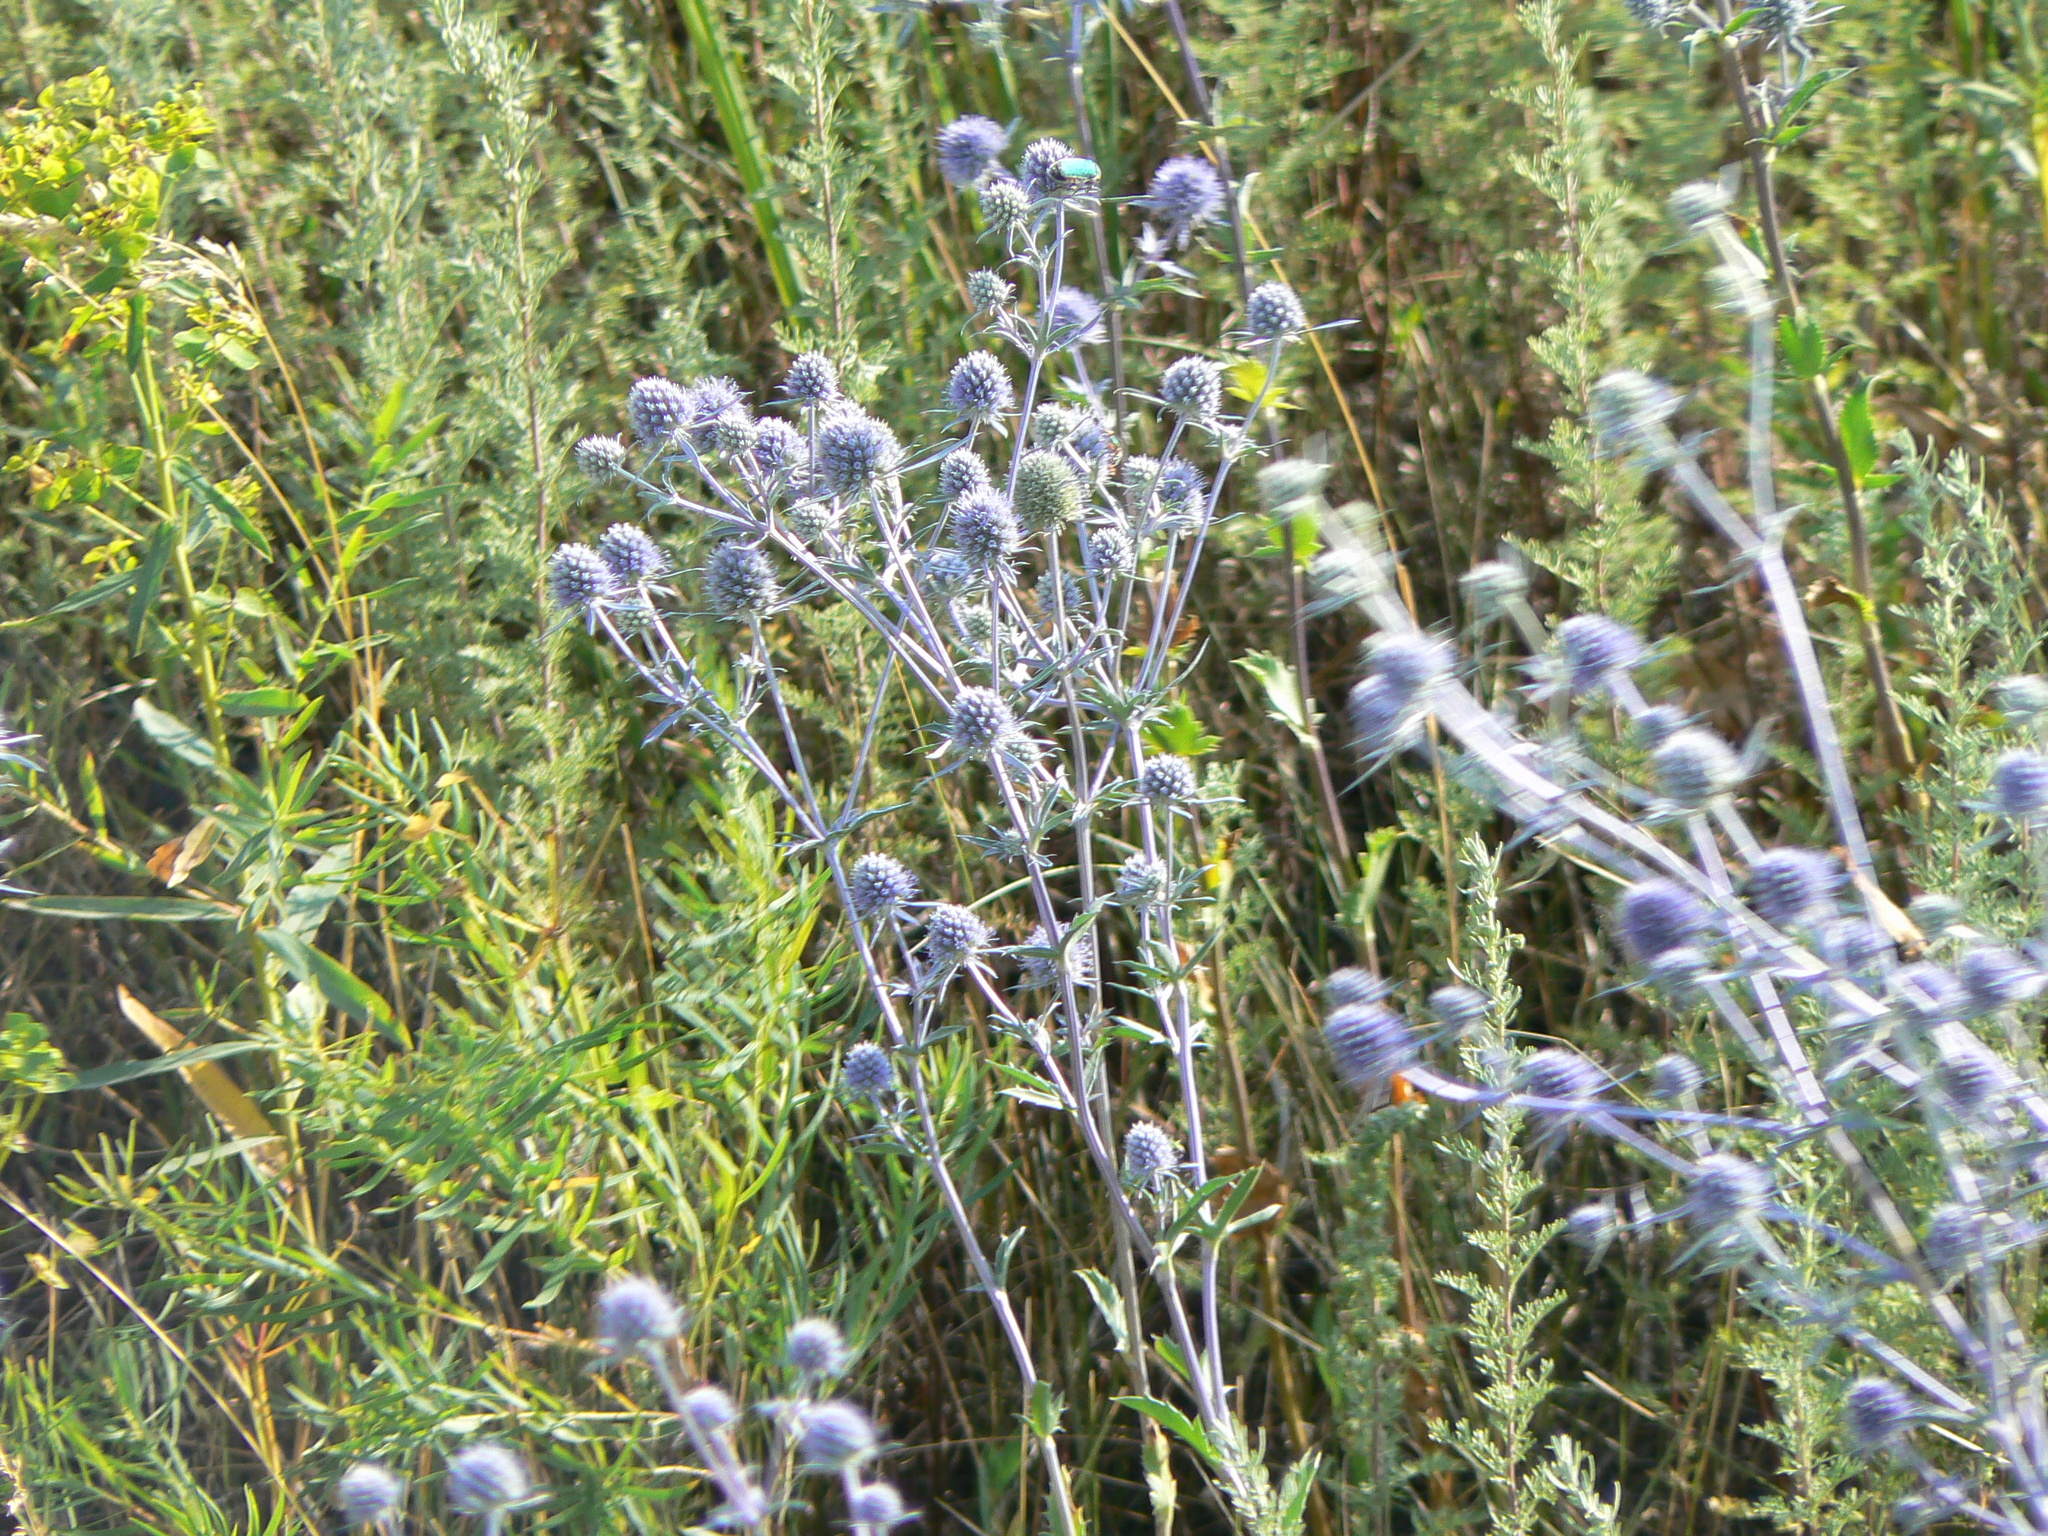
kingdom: Plantae
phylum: Tracheophyta
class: Magnoliopsida
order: Apiales
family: Apiaceae
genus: Eryngium
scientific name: Eryngium planum
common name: Blue eryngo
